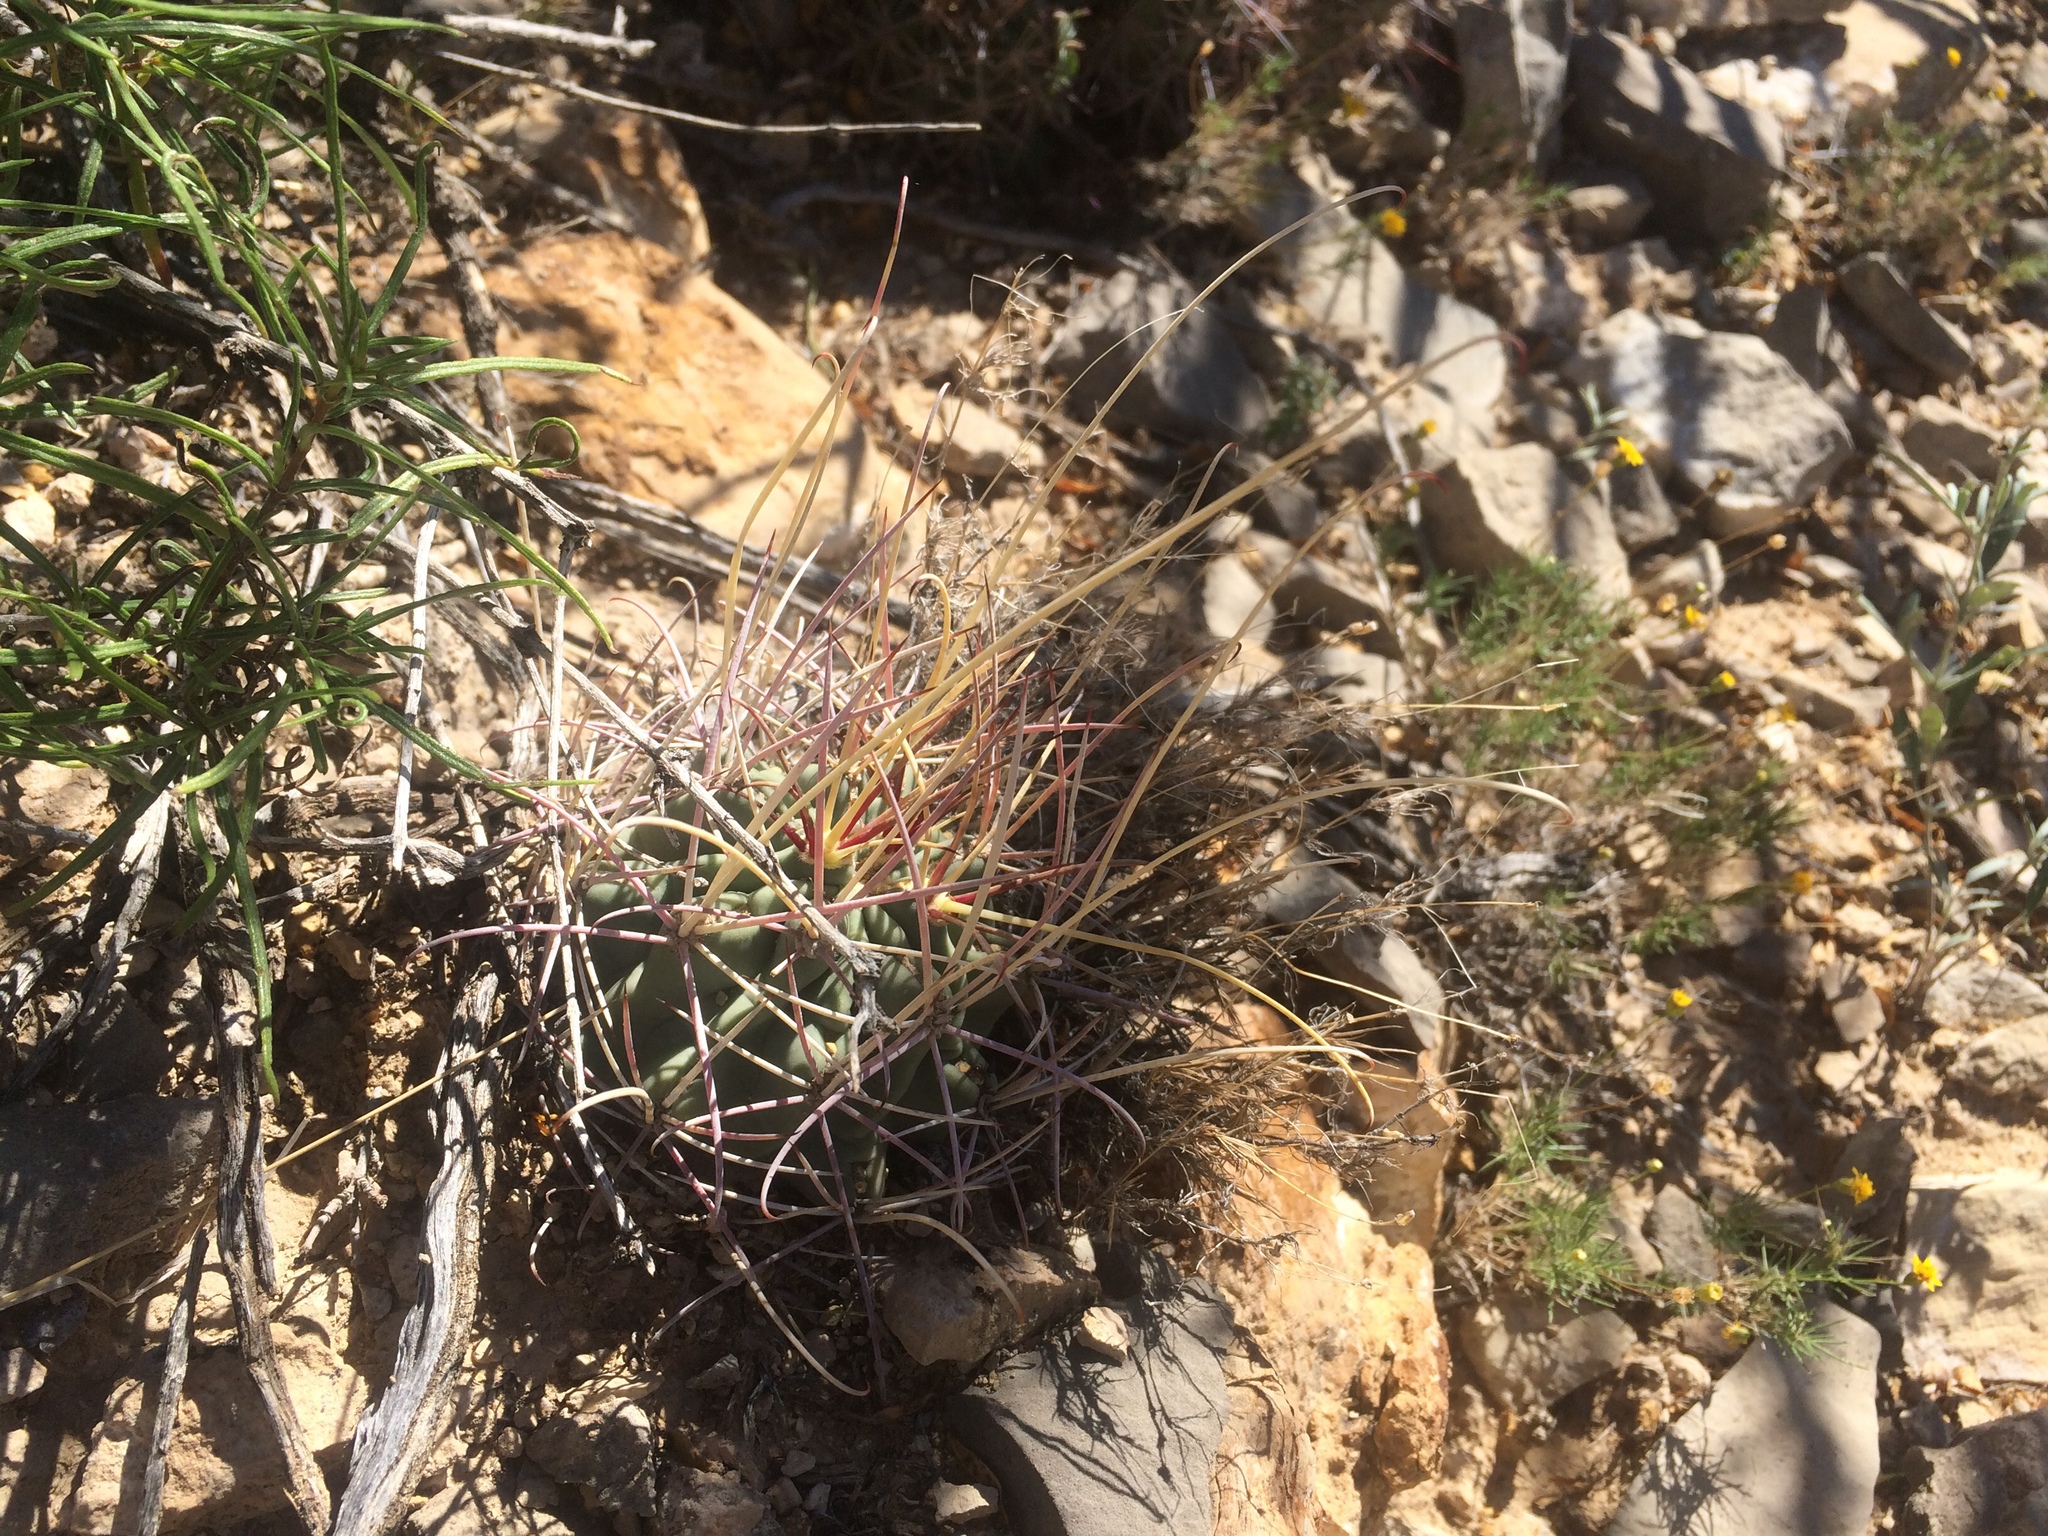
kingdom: Plantae
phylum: Tracheophyta
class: Magnoliopsida
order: Caryophyllales
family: Cactaceae
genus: Ferocactus
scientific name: Ferocactus uncinatus
